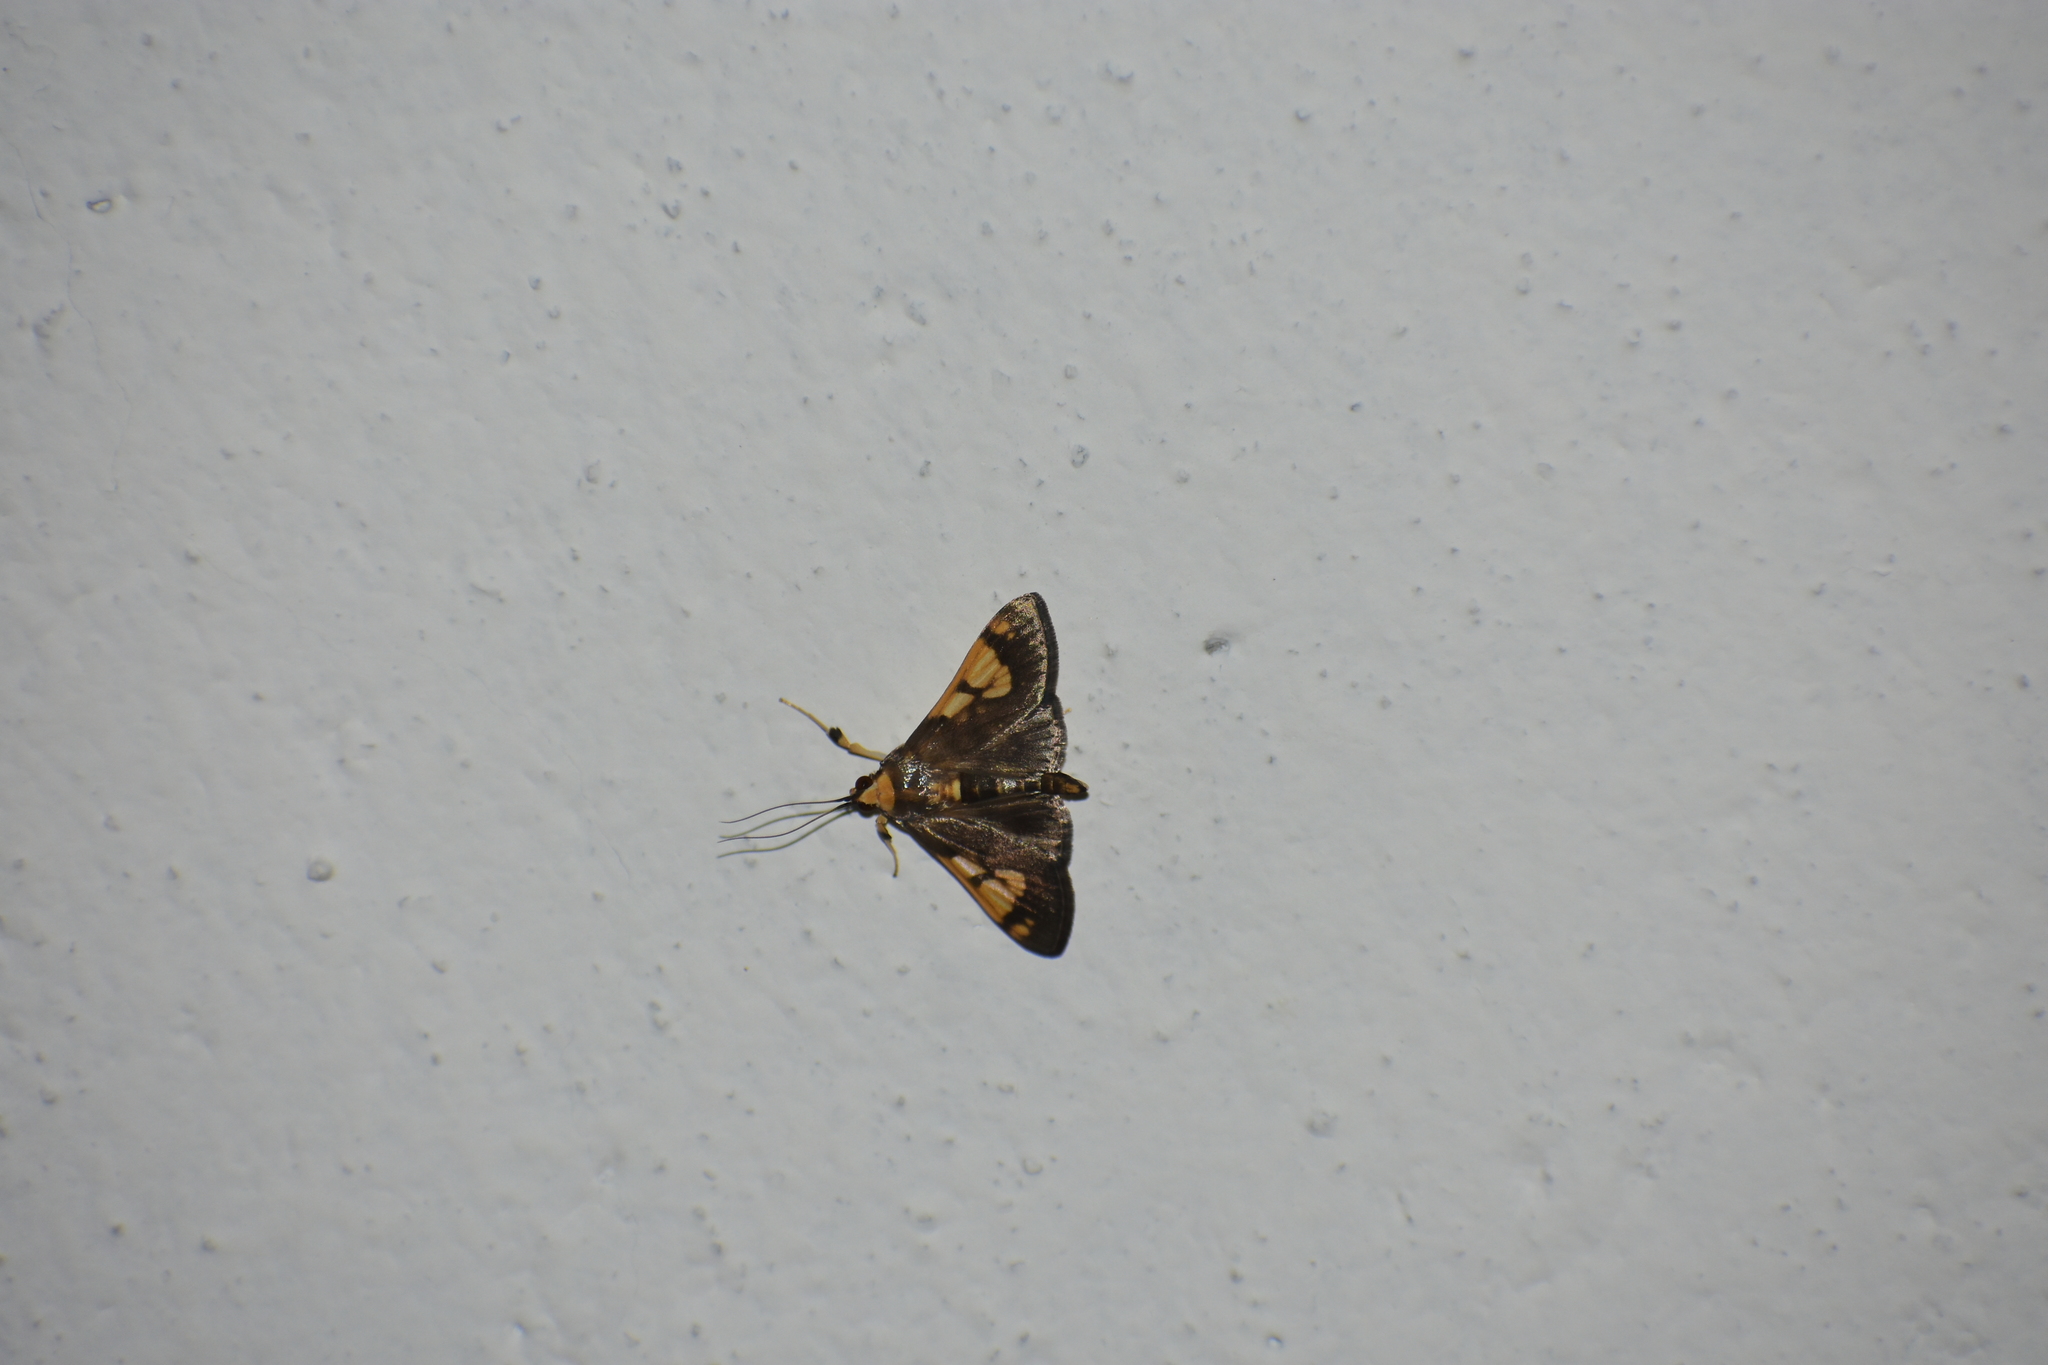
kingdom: Animalia
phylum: Arthropoda
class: Insecta
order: Lepidoptera
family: Crambidae
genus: Ulopeza
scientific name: Ulopeza idyalis
